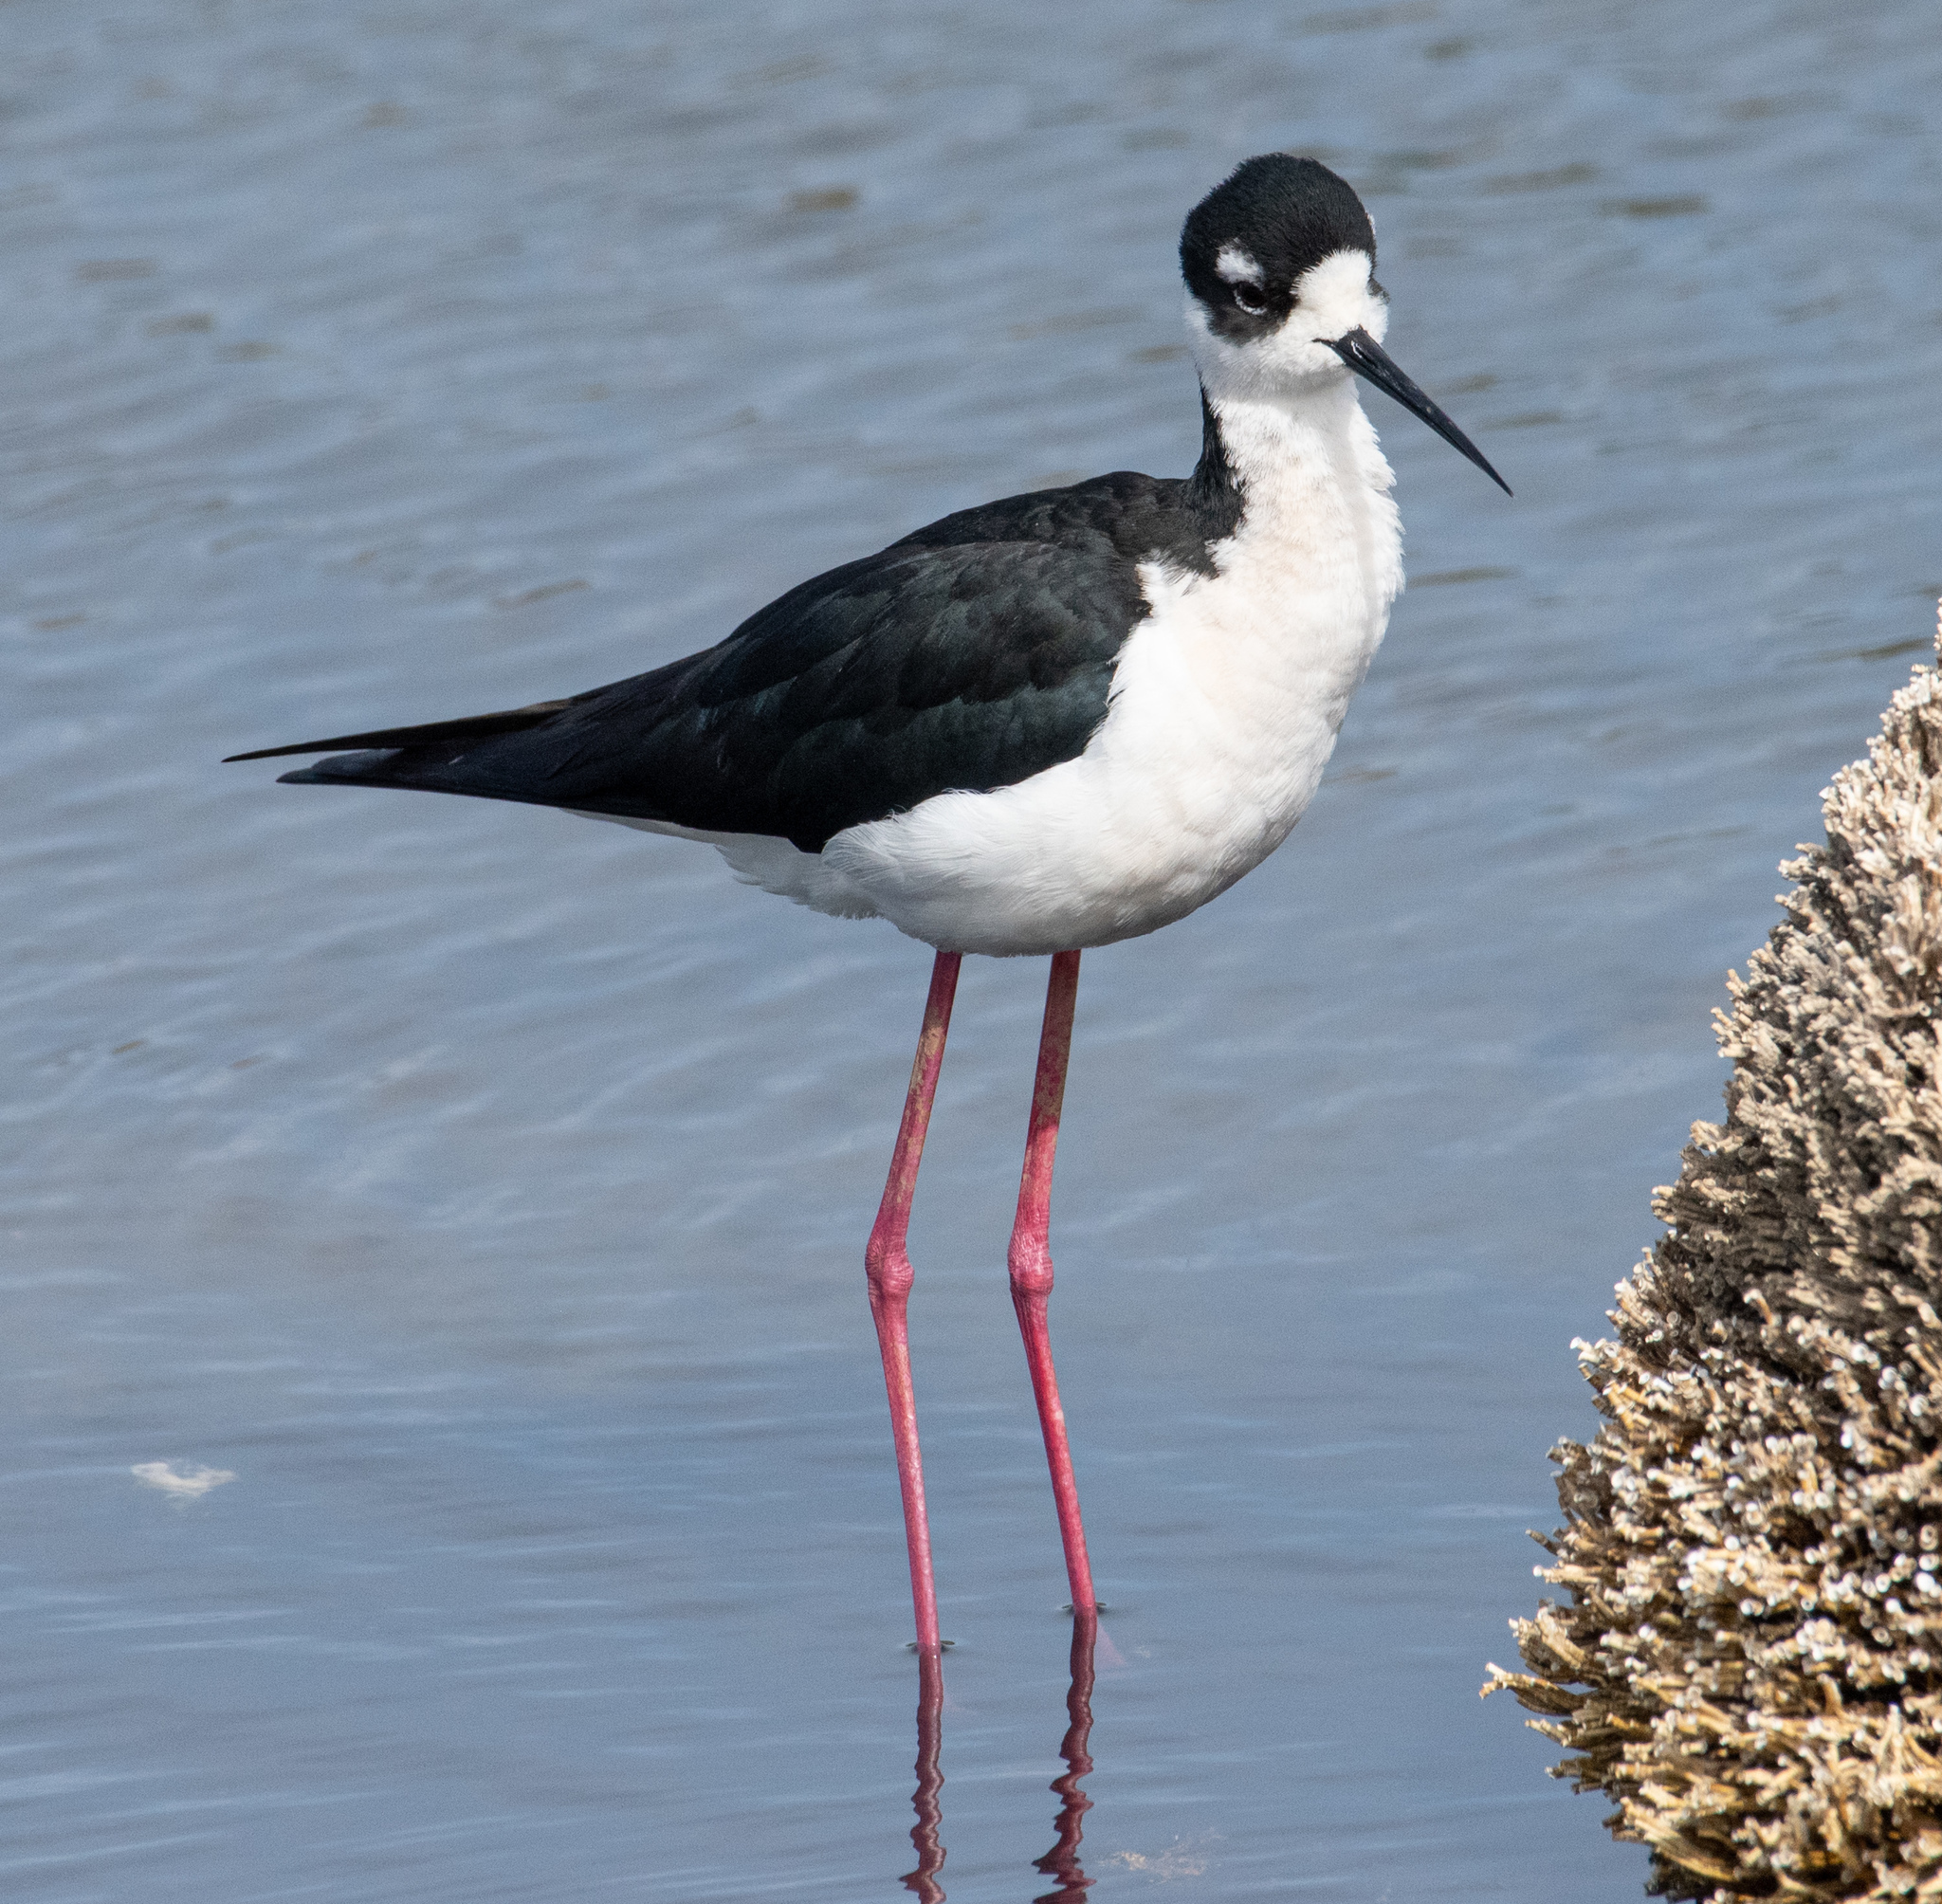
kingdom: Animalia
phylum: Chordata
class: Aves
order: Charadriiformes
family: Recurvirostridae
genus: Himantopus
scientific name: Himantopus mexicanus
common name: Black-necked stilt
